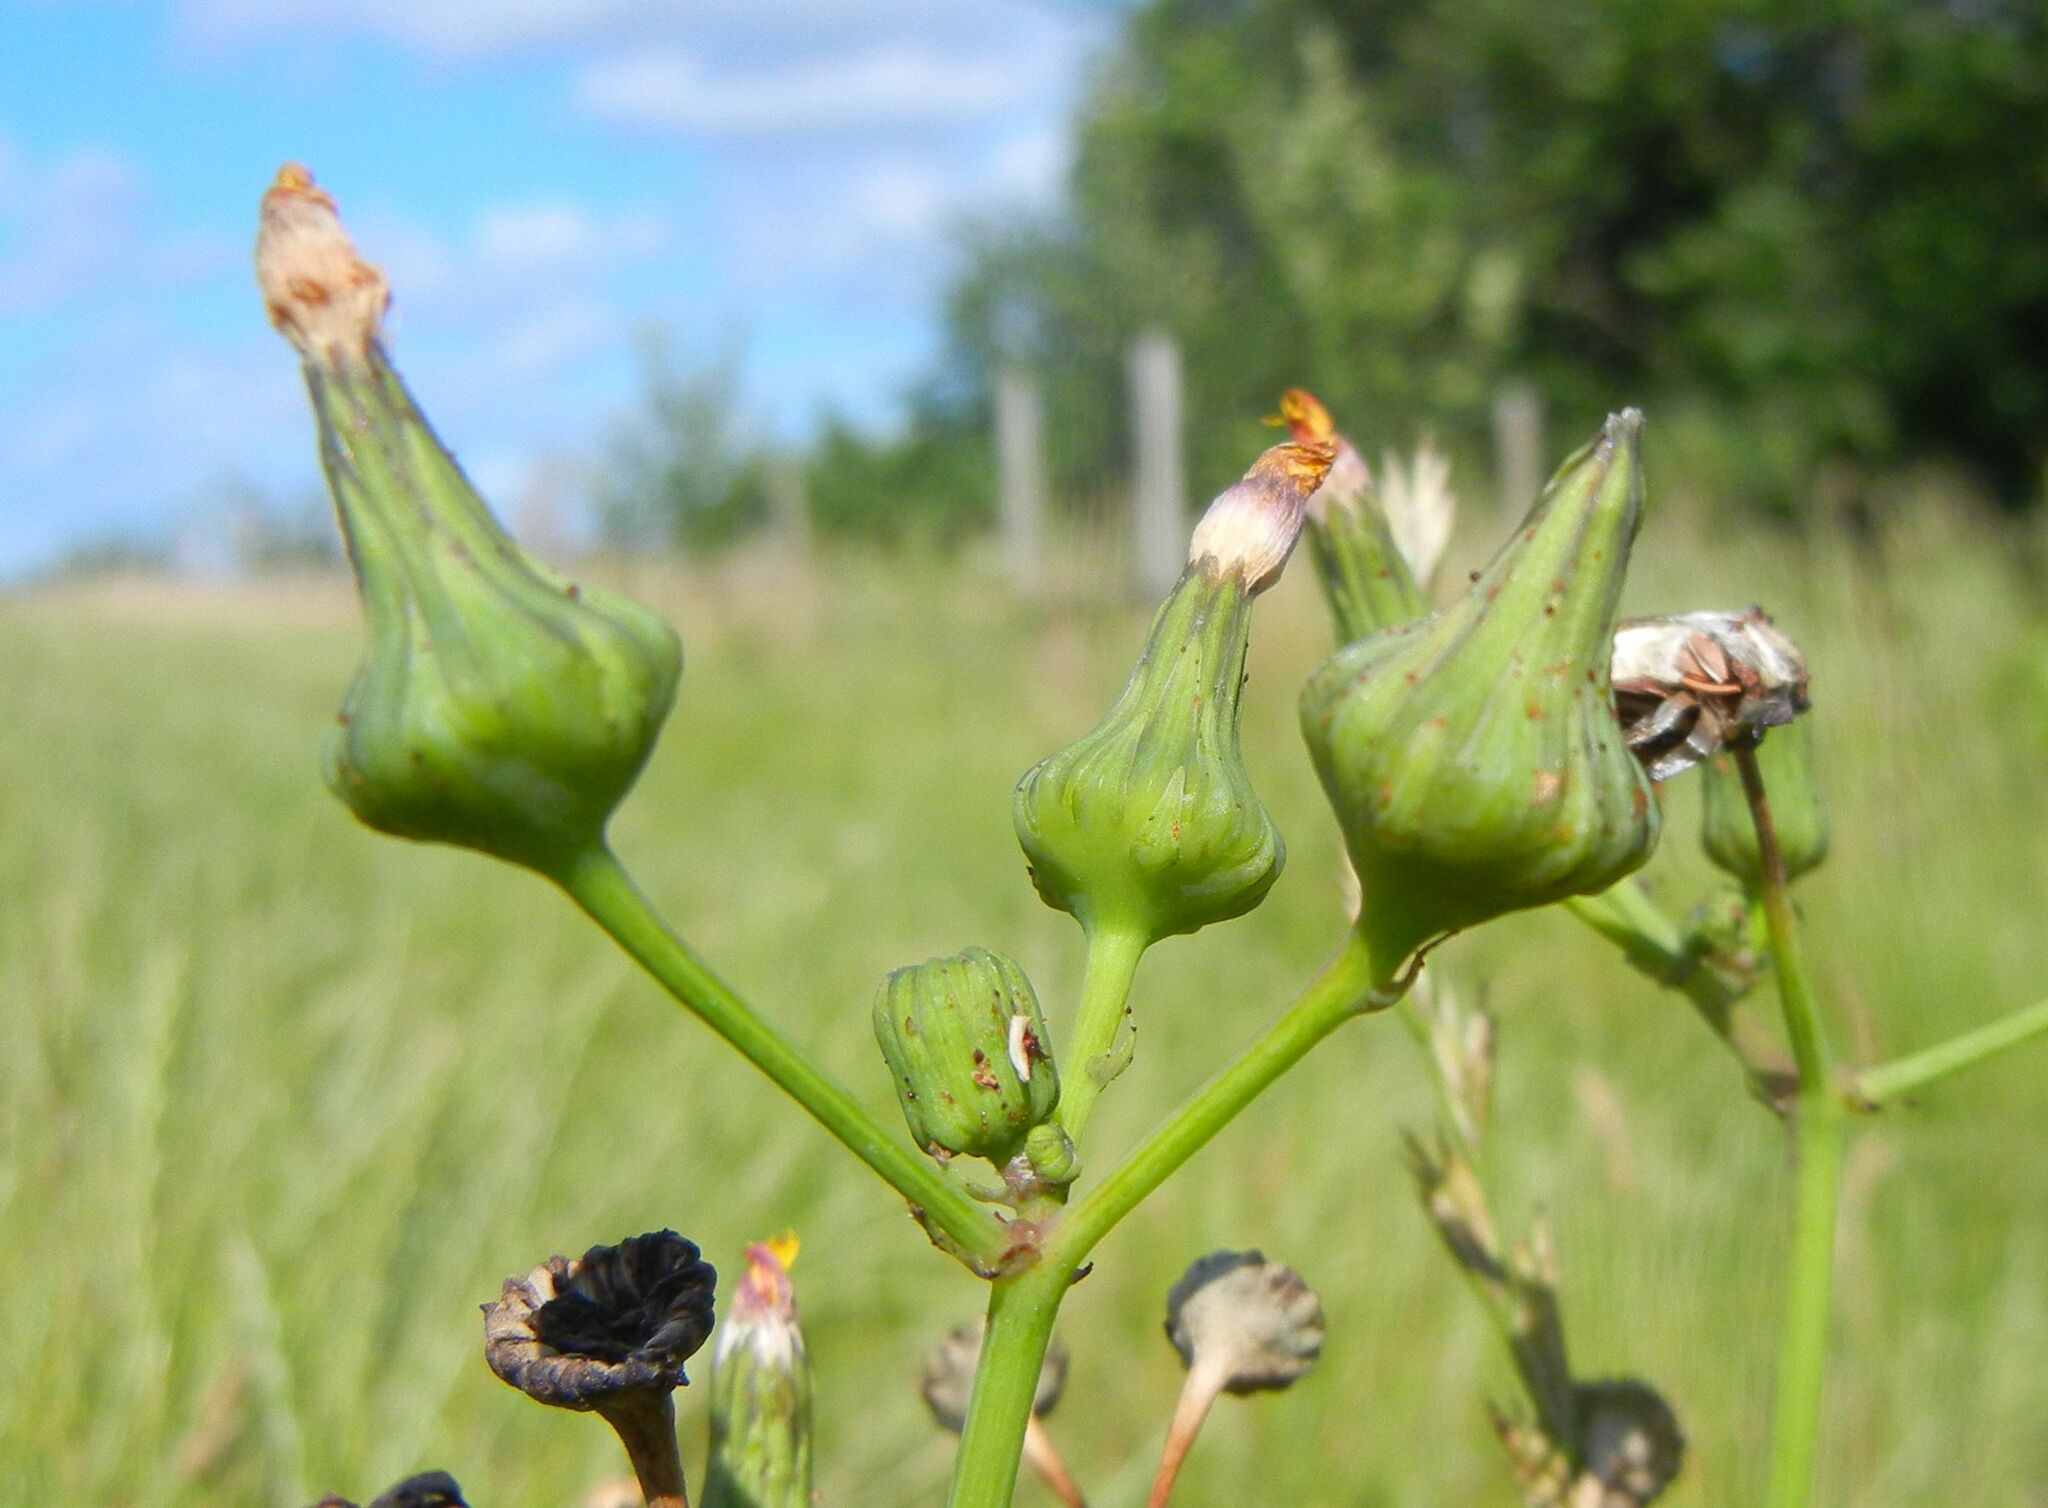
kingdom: Plantae
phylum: Tracheophyta
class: Magnoliopsida
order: Asterales
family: Asteraceae
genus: Sonchus
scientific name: Sonchus asper
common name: Prickly sow-thistle
